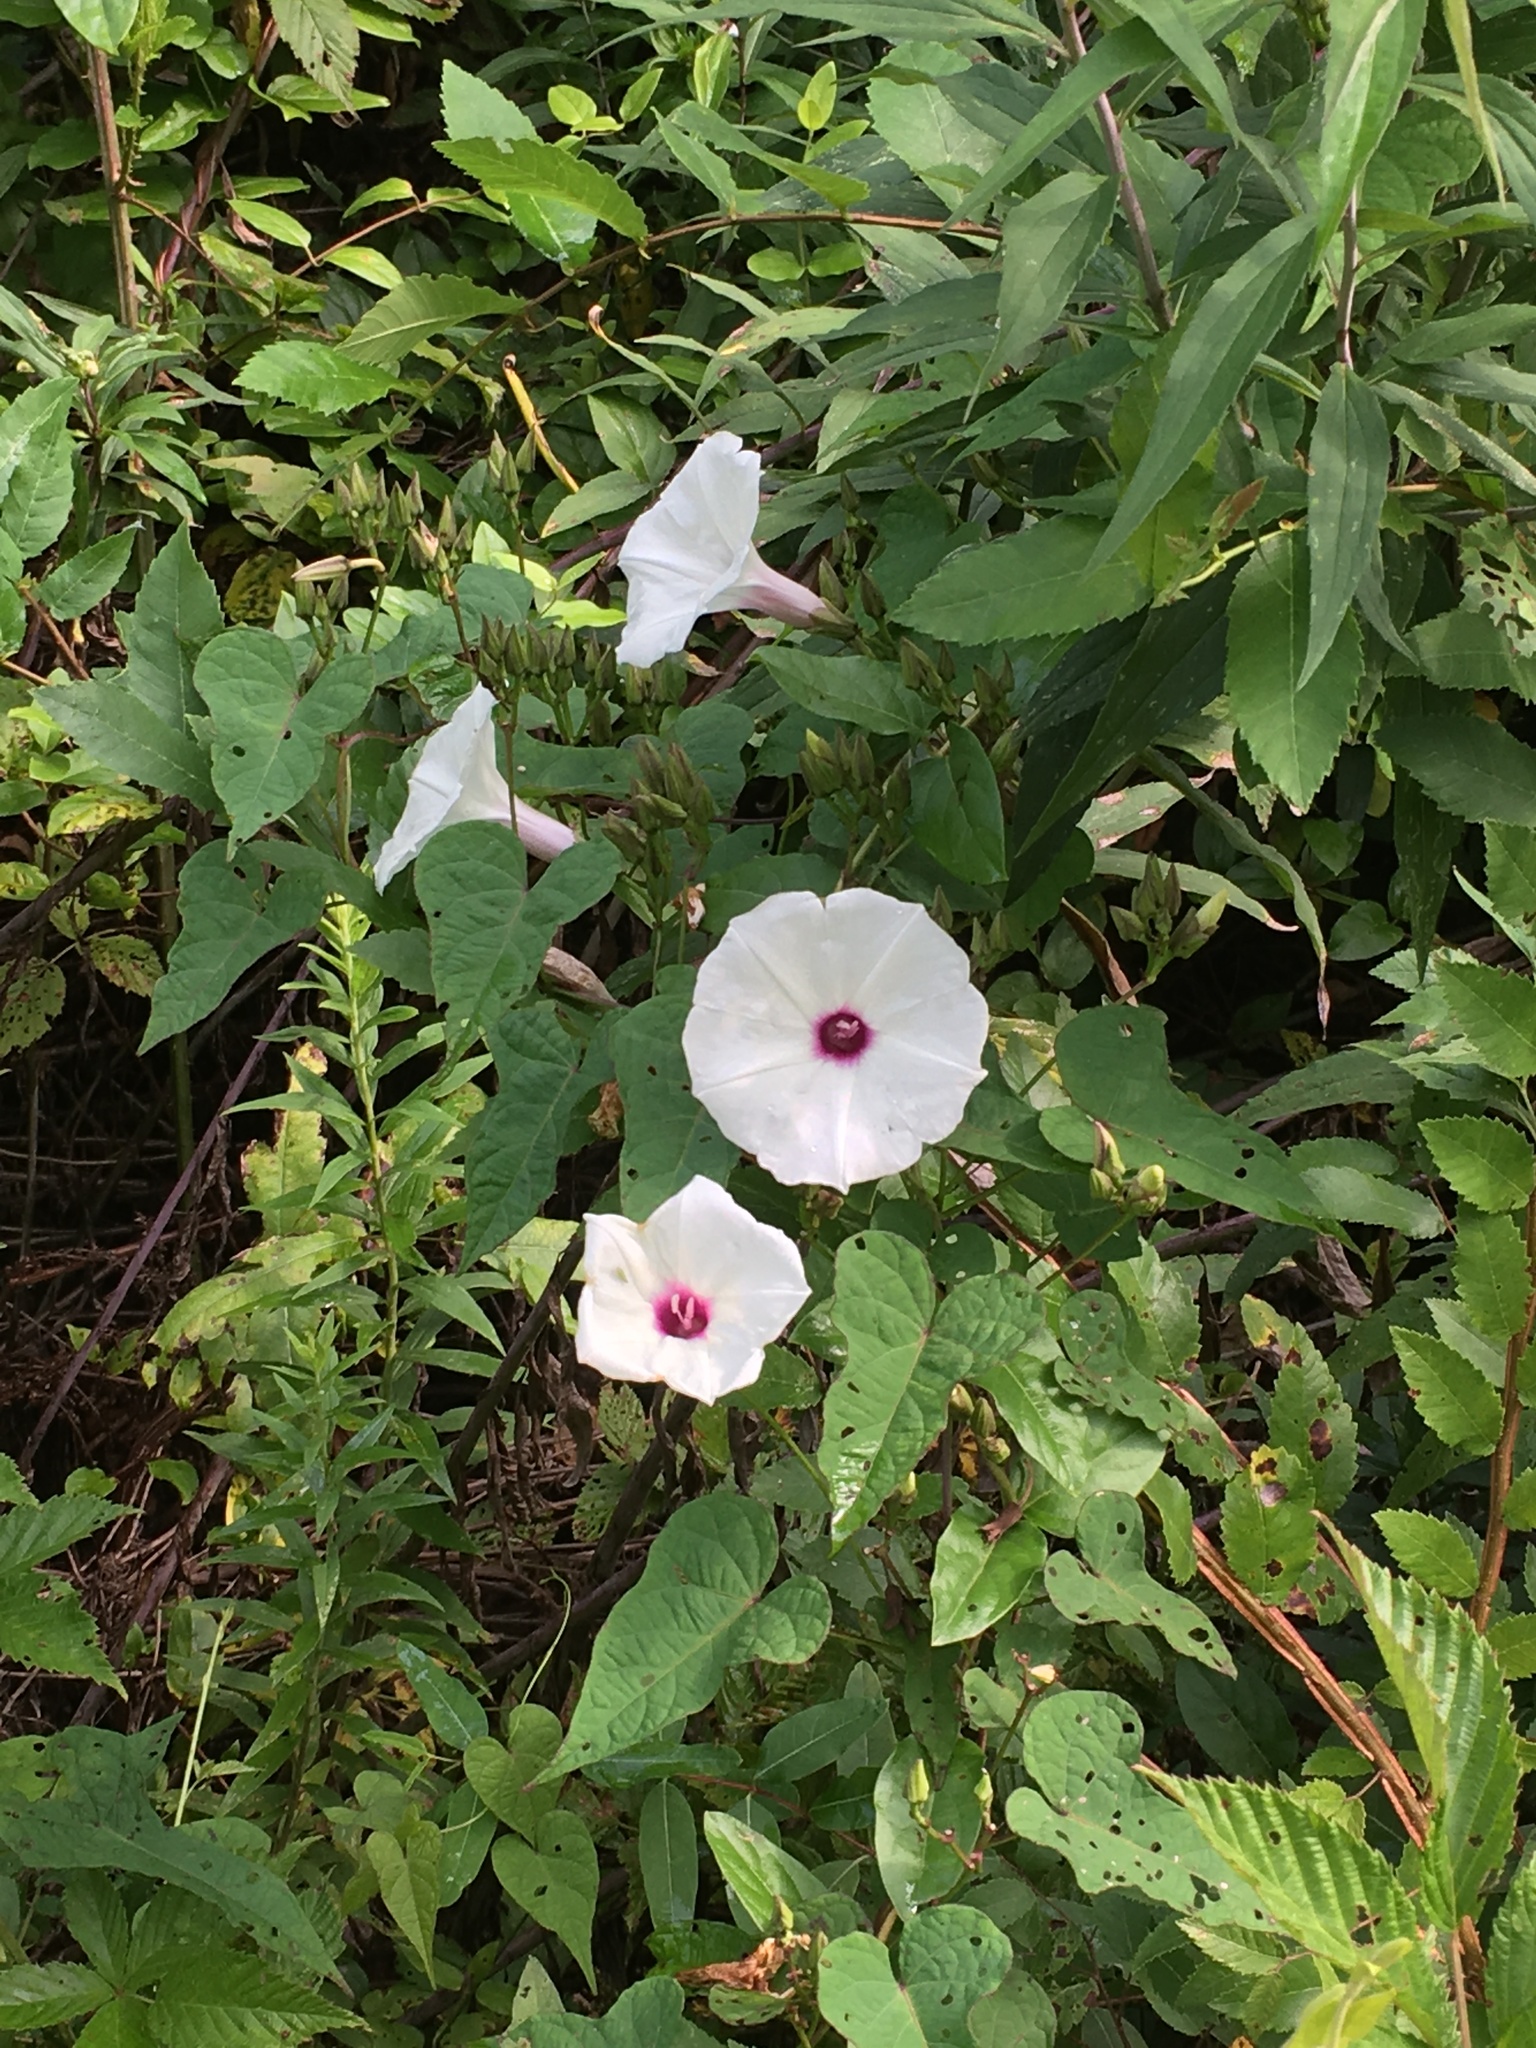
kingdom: Plantae
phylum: Tracheophyta
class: Magnoliopsida
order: Solanales
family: Convolvulaceae
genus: Ipomoea
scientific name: Ipomoea pandurata
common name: Man-of-the-earth
